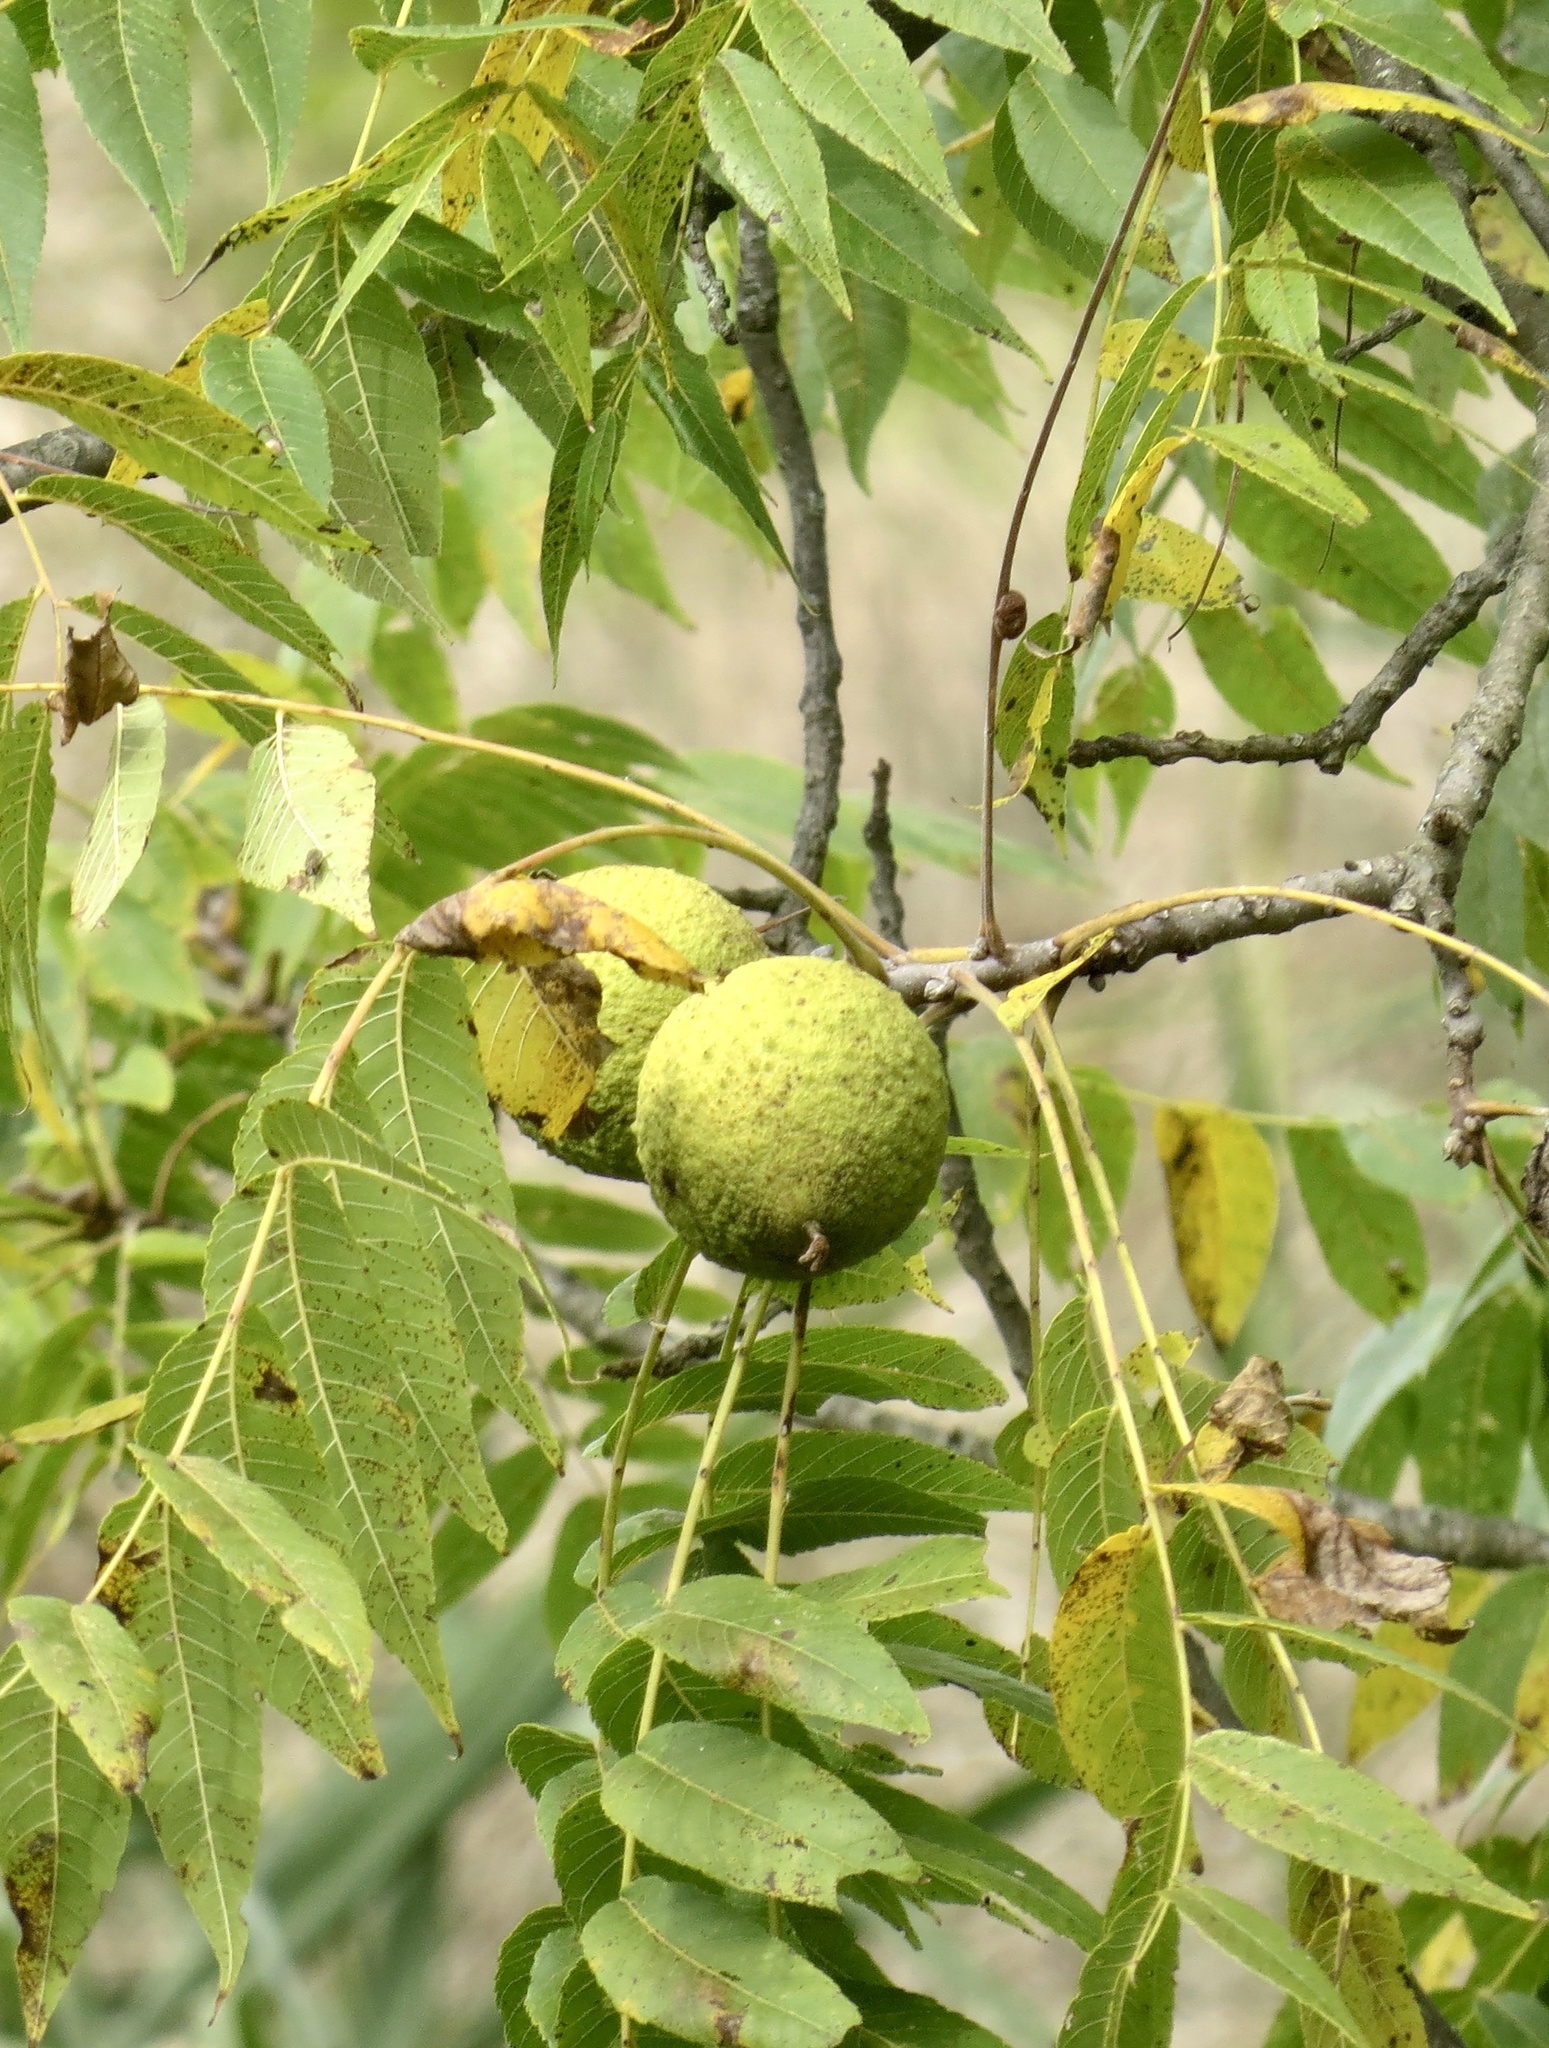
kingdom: Plantae
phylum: Tracheophyta
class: Magnoliopsida
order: Fagales
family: Juglandaceae
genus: Juglans
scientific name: Juglans nigra
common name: Black walnut
